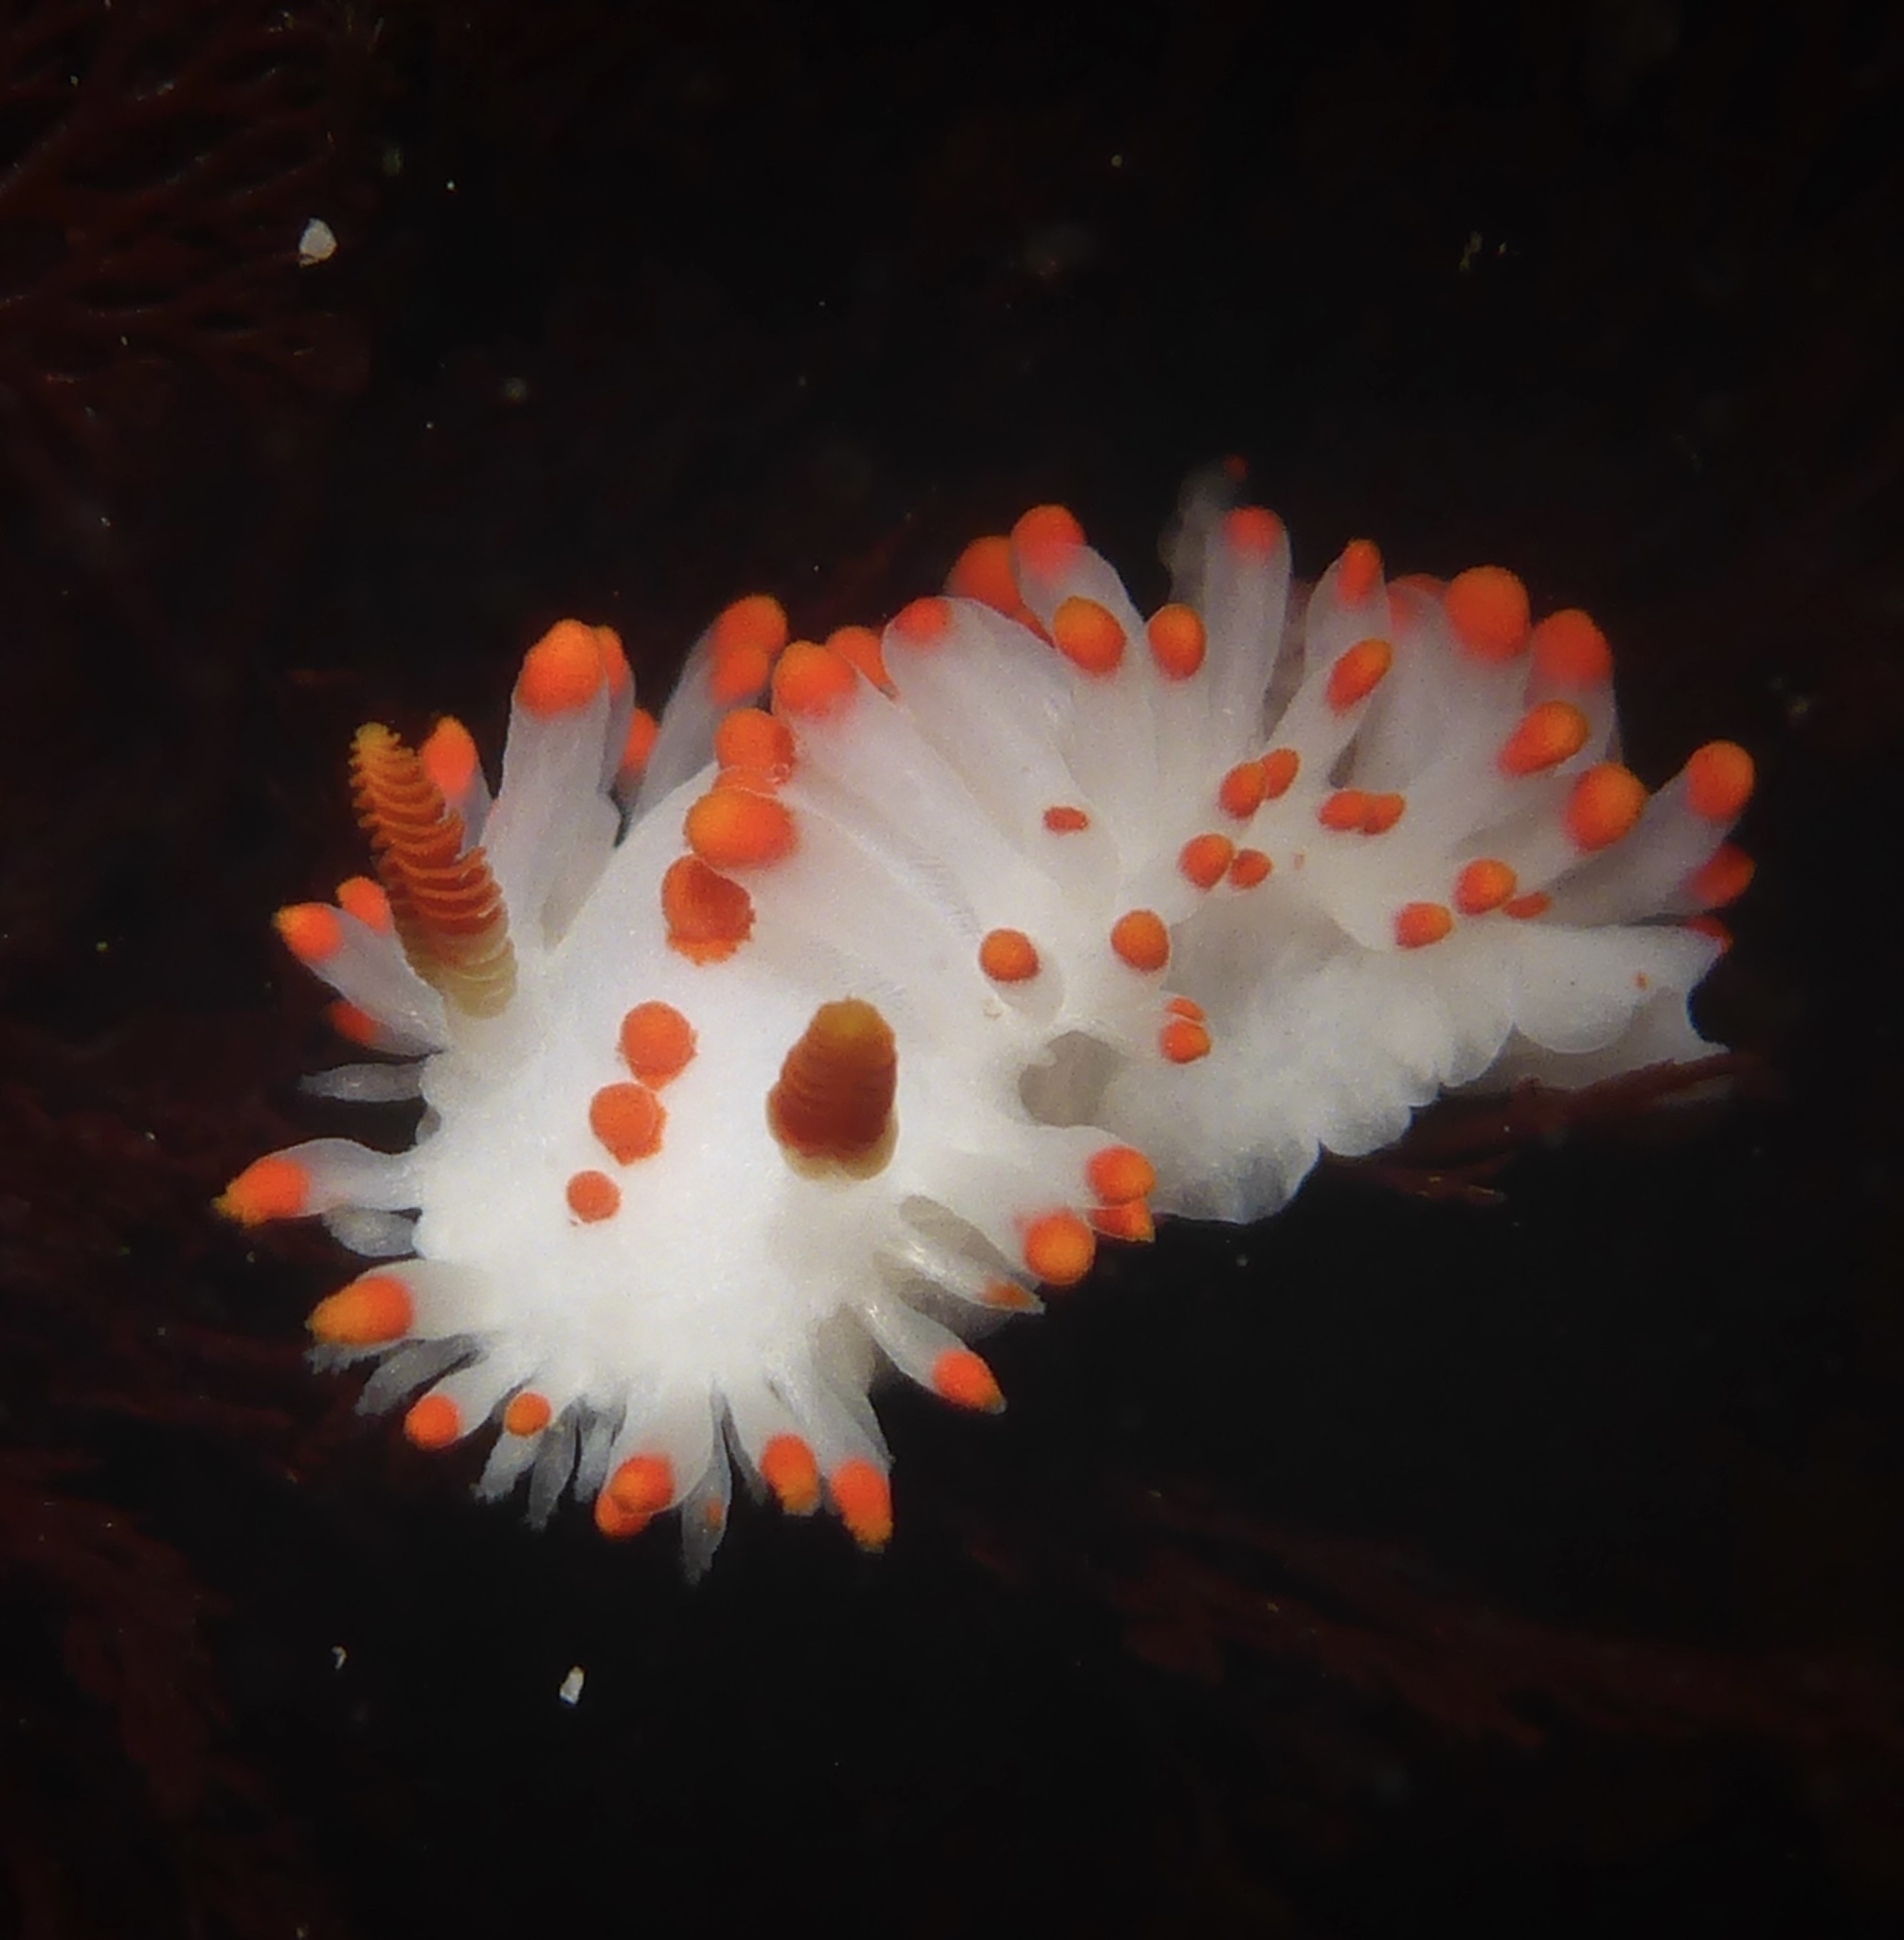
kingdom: Animalia
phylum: Mollusca
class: Gastropoda
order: Nudibranchia
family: Polyceridae
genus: Limacia
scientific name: Limacia mcdonaldi
